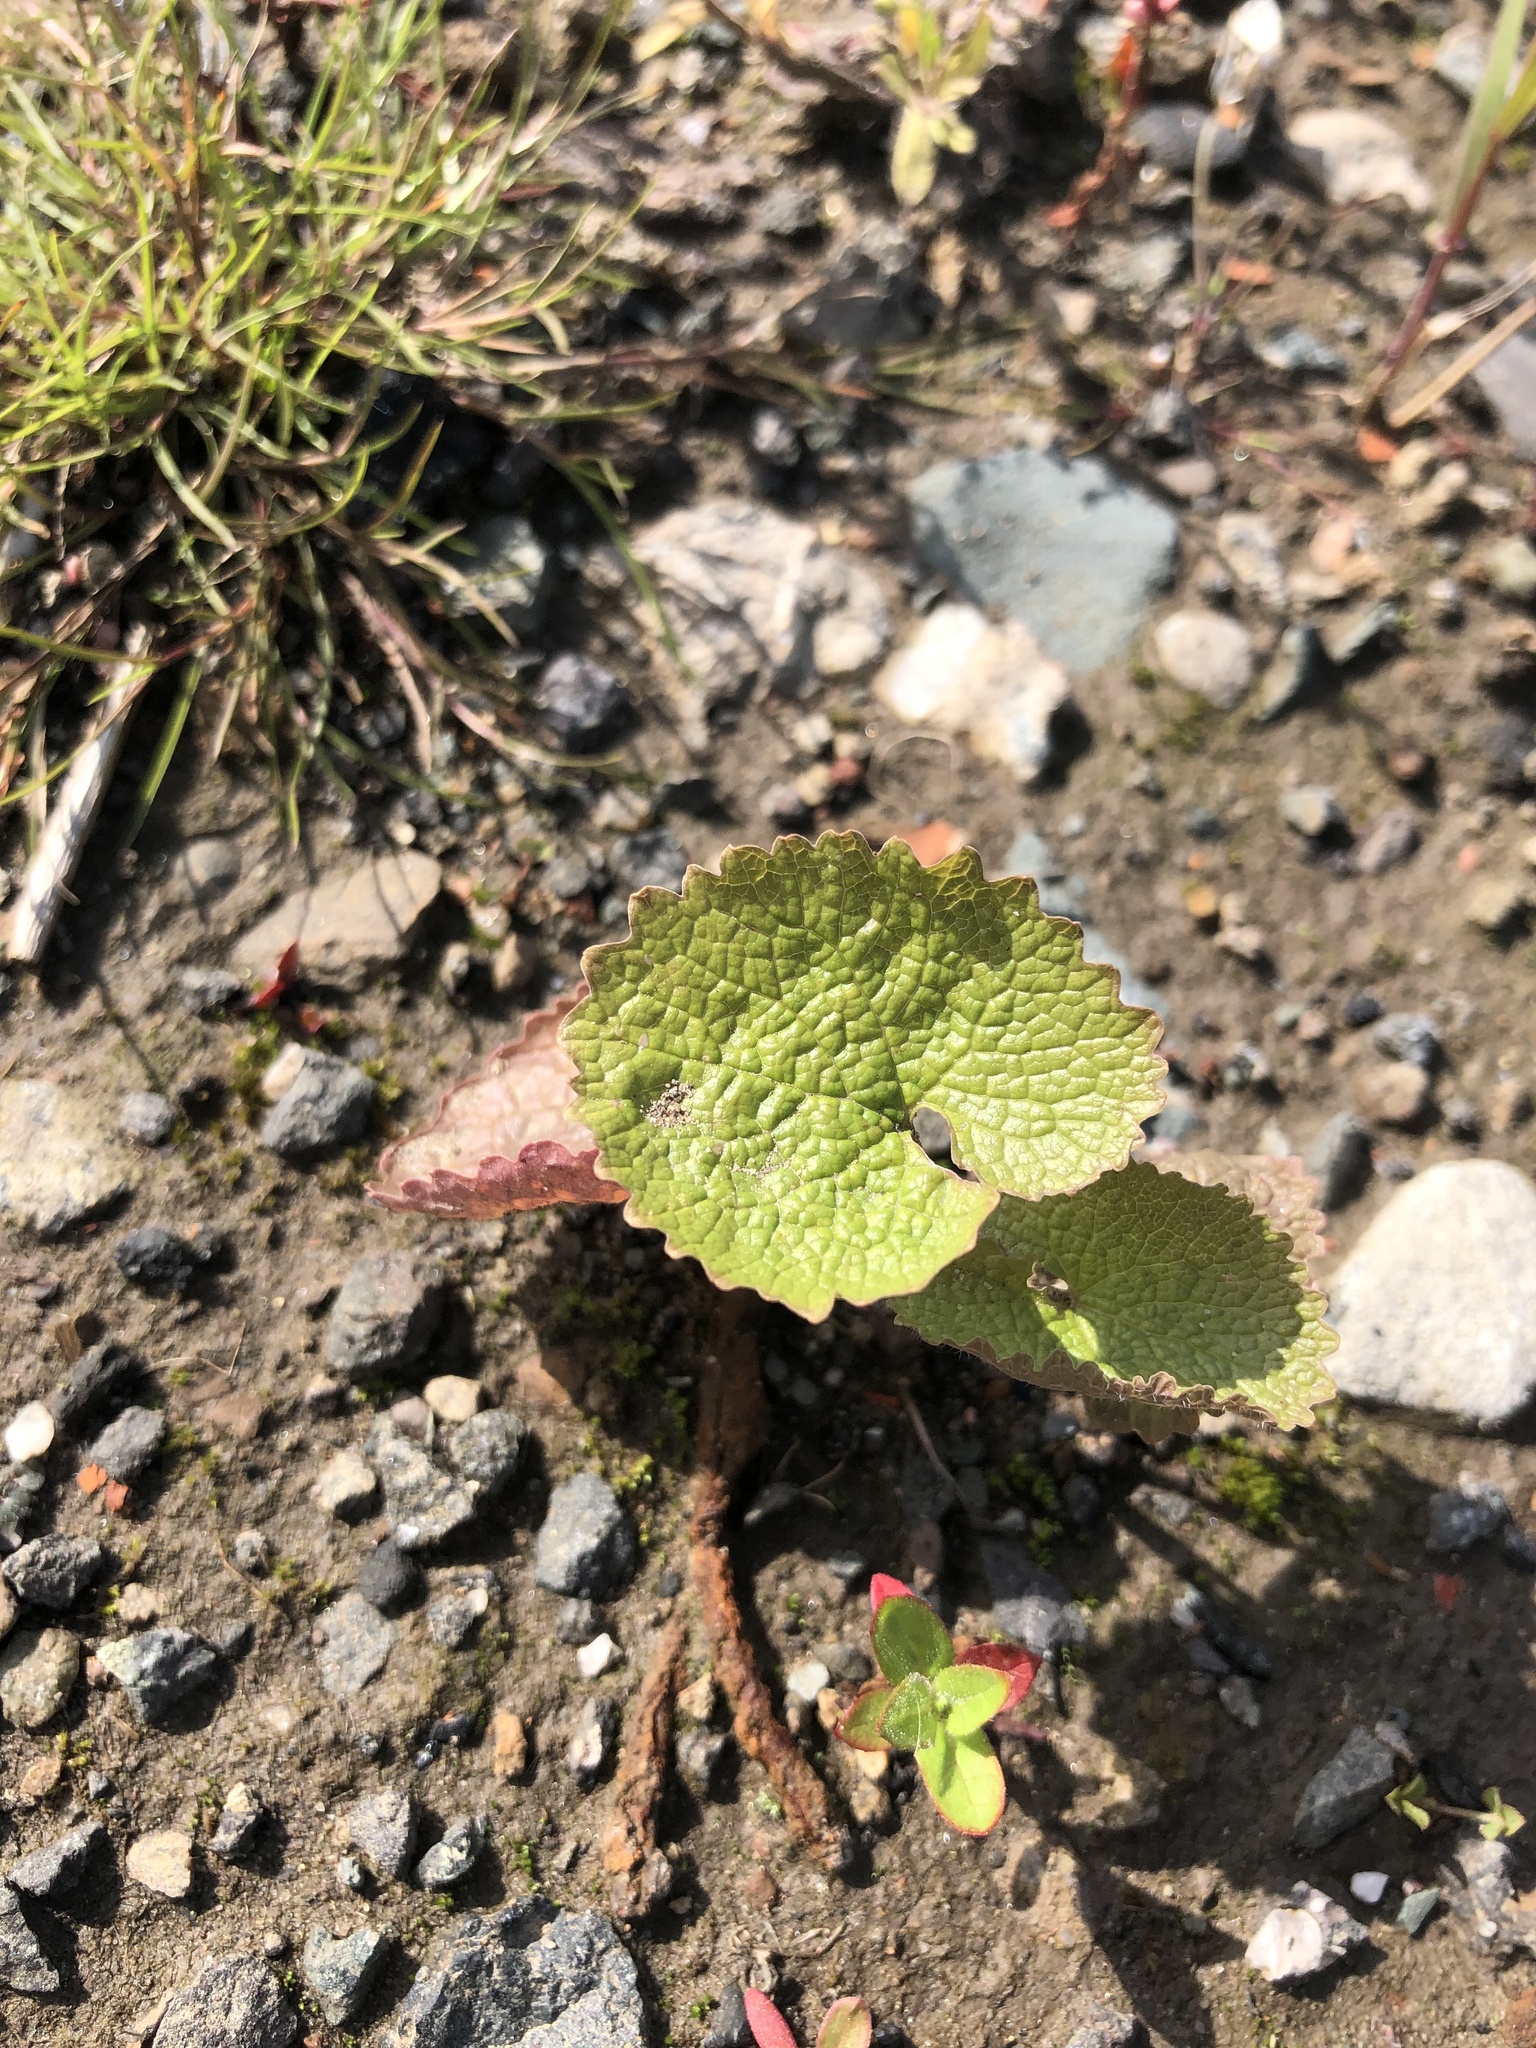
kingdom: Plantae
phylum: Tracheophyta
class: Magnoliopsida
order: Brassicales
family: Brassicaceae
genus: Alliaria
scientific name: Alliaria petiolata
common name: Garlic mustard
